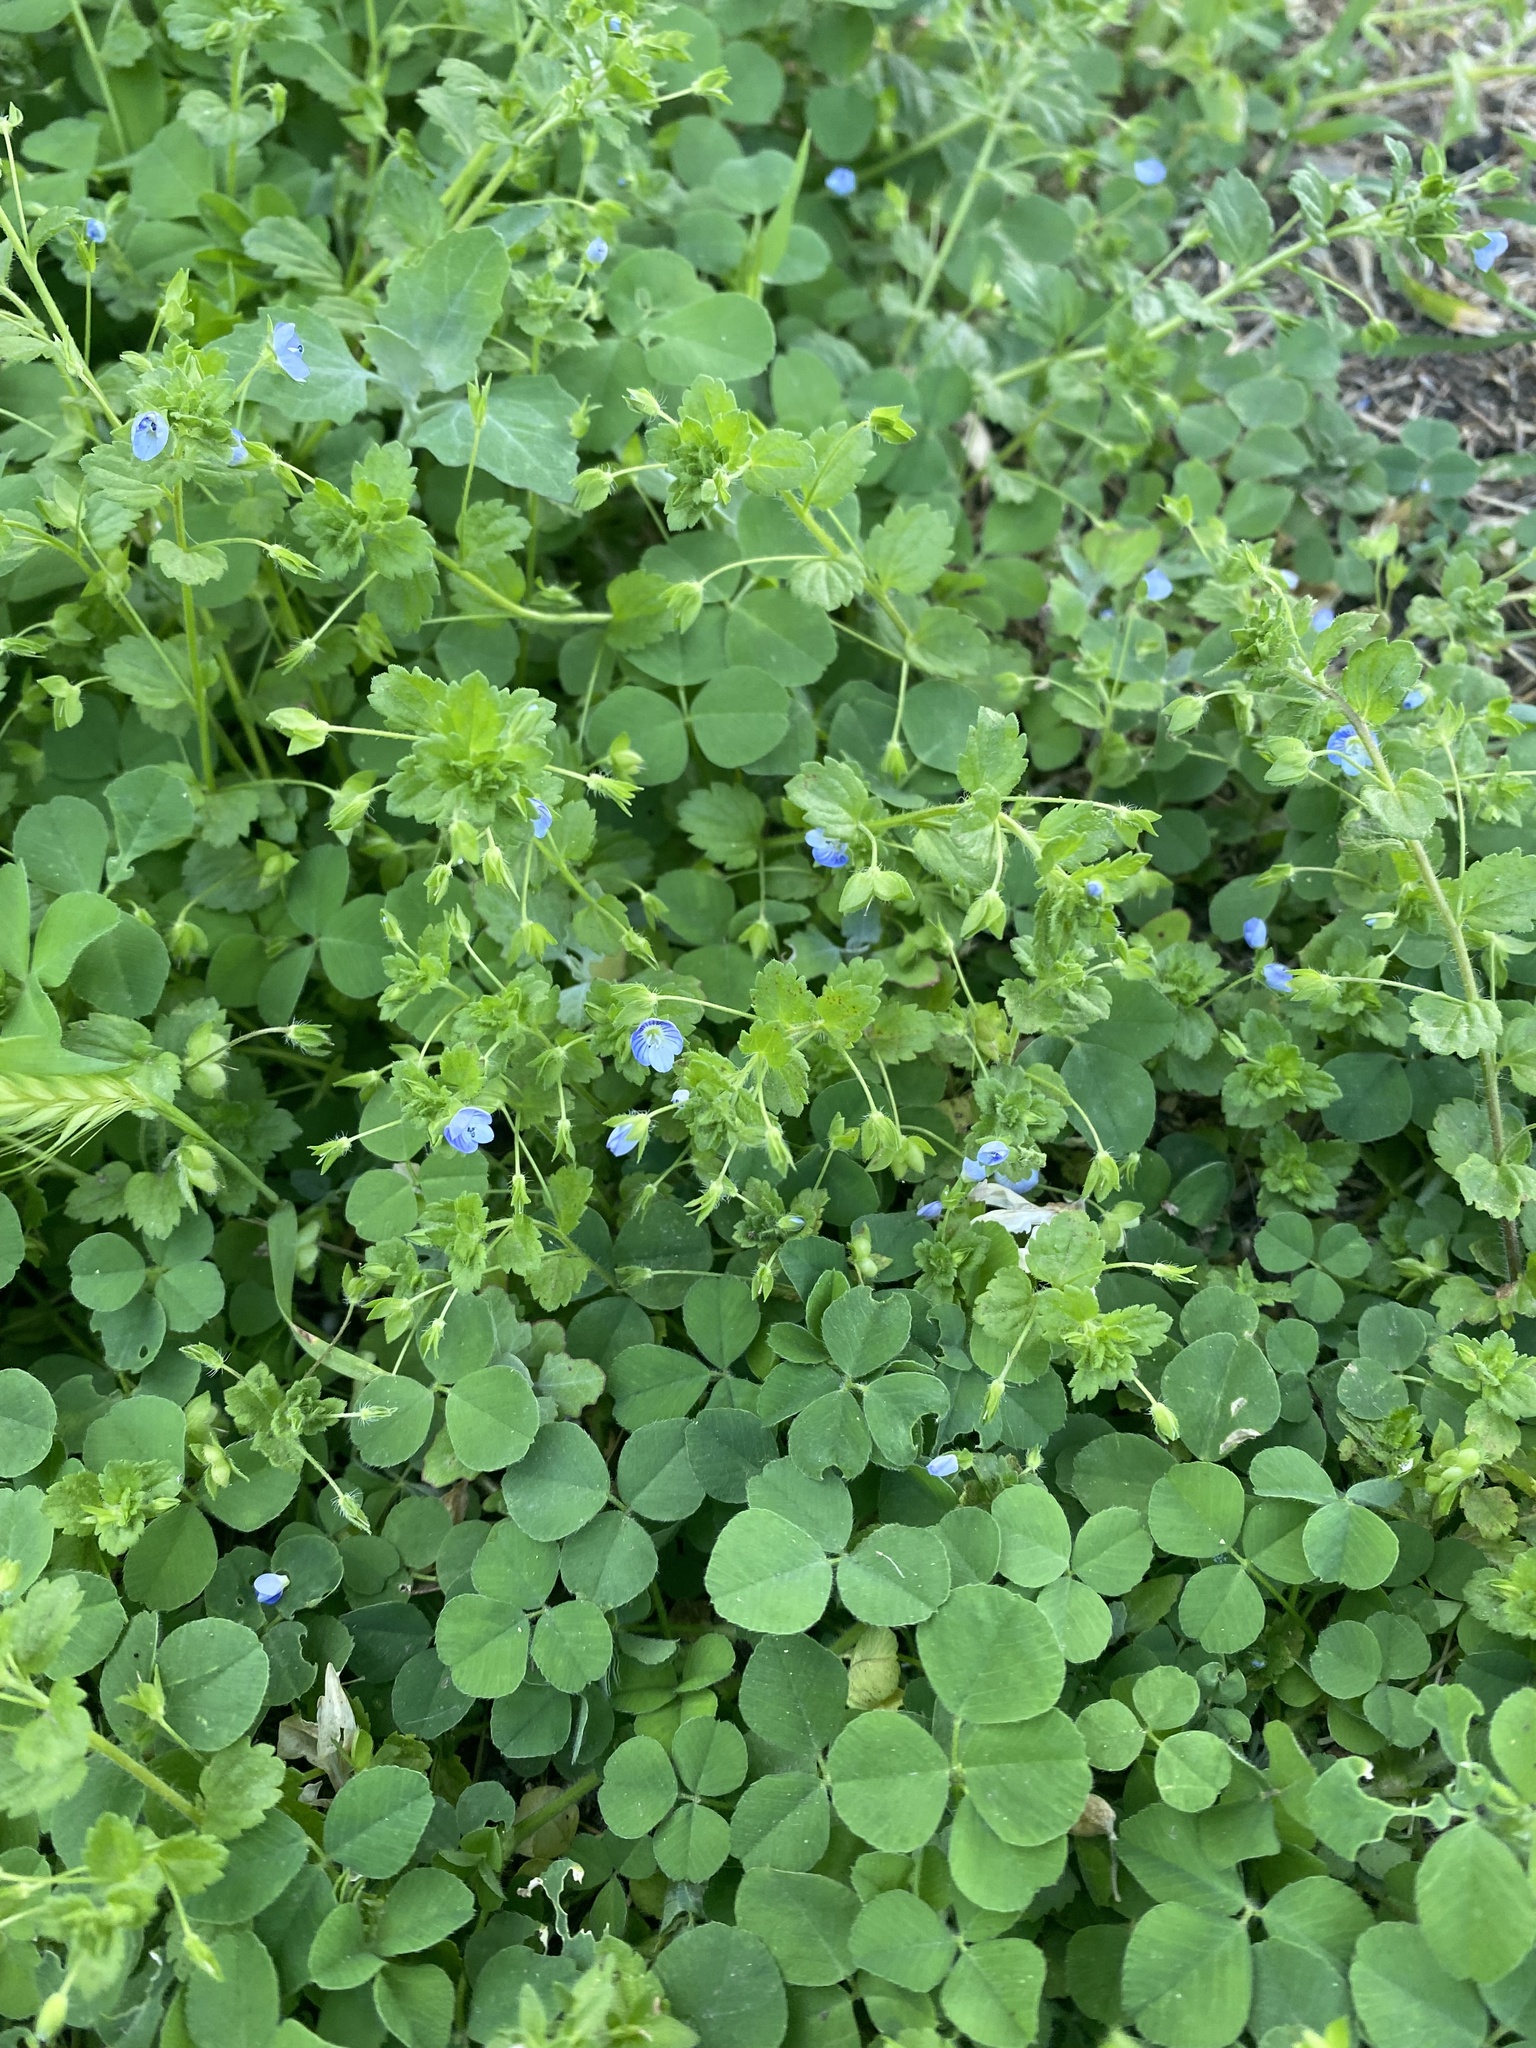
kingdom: Plantae
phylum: Tracheophyta
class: Magnoliopsida
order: Lamiales
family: Plantaginaceae
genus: Veronica
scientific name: Veronica persica
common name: Common field-speedwell
